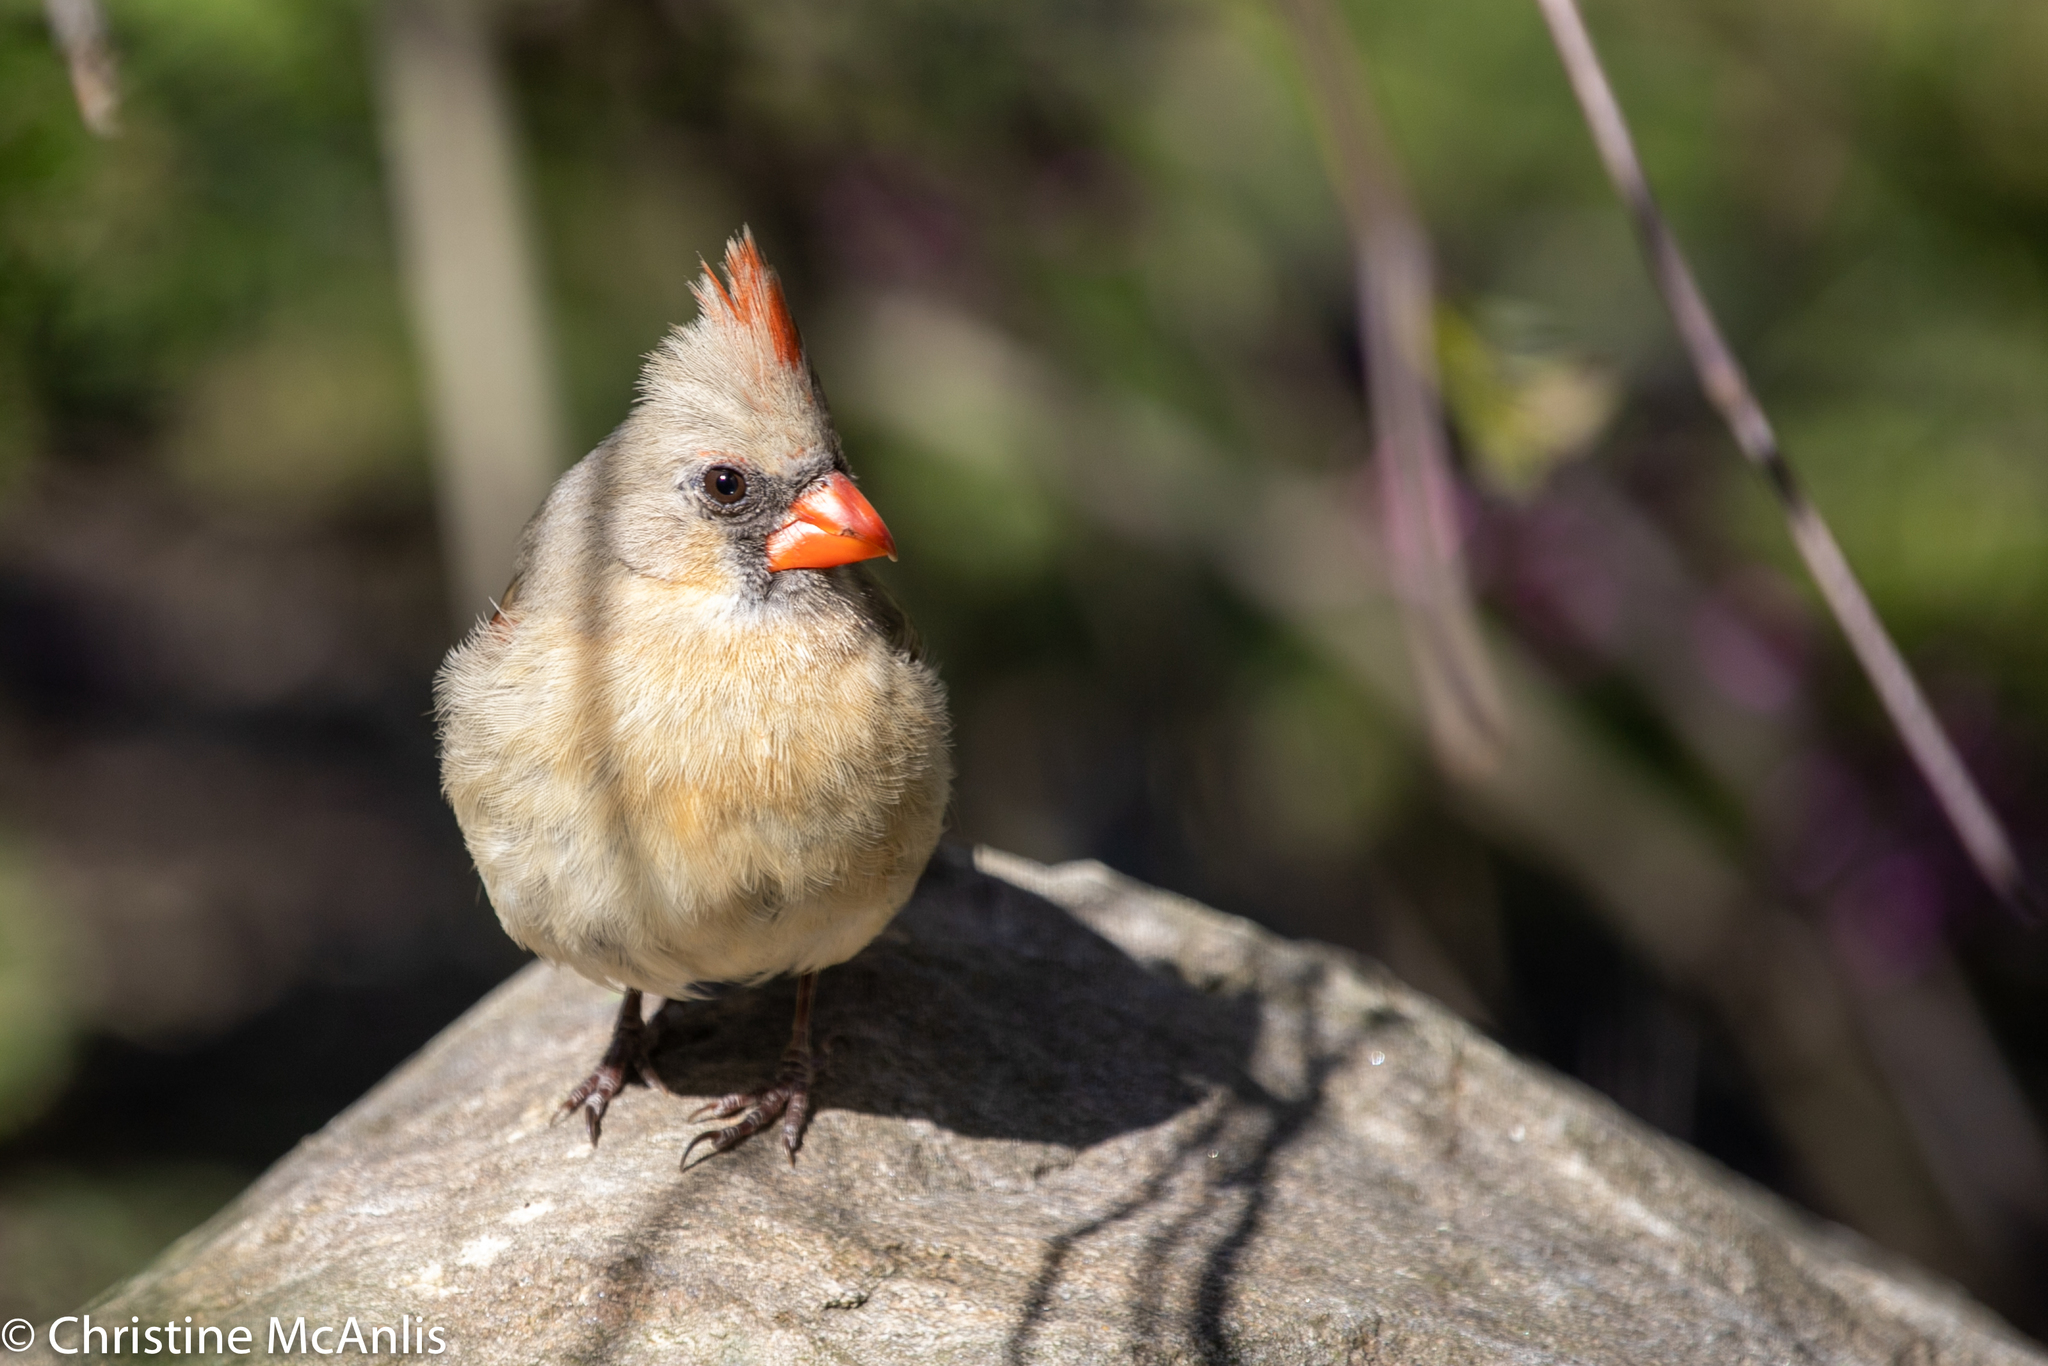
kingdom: Animalia
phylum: Chordata
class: Aves
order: Passeriformes
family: Cardinalidae
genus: Cardinalis
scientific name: Cardinalis cardinalis
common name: Northern cardinal
